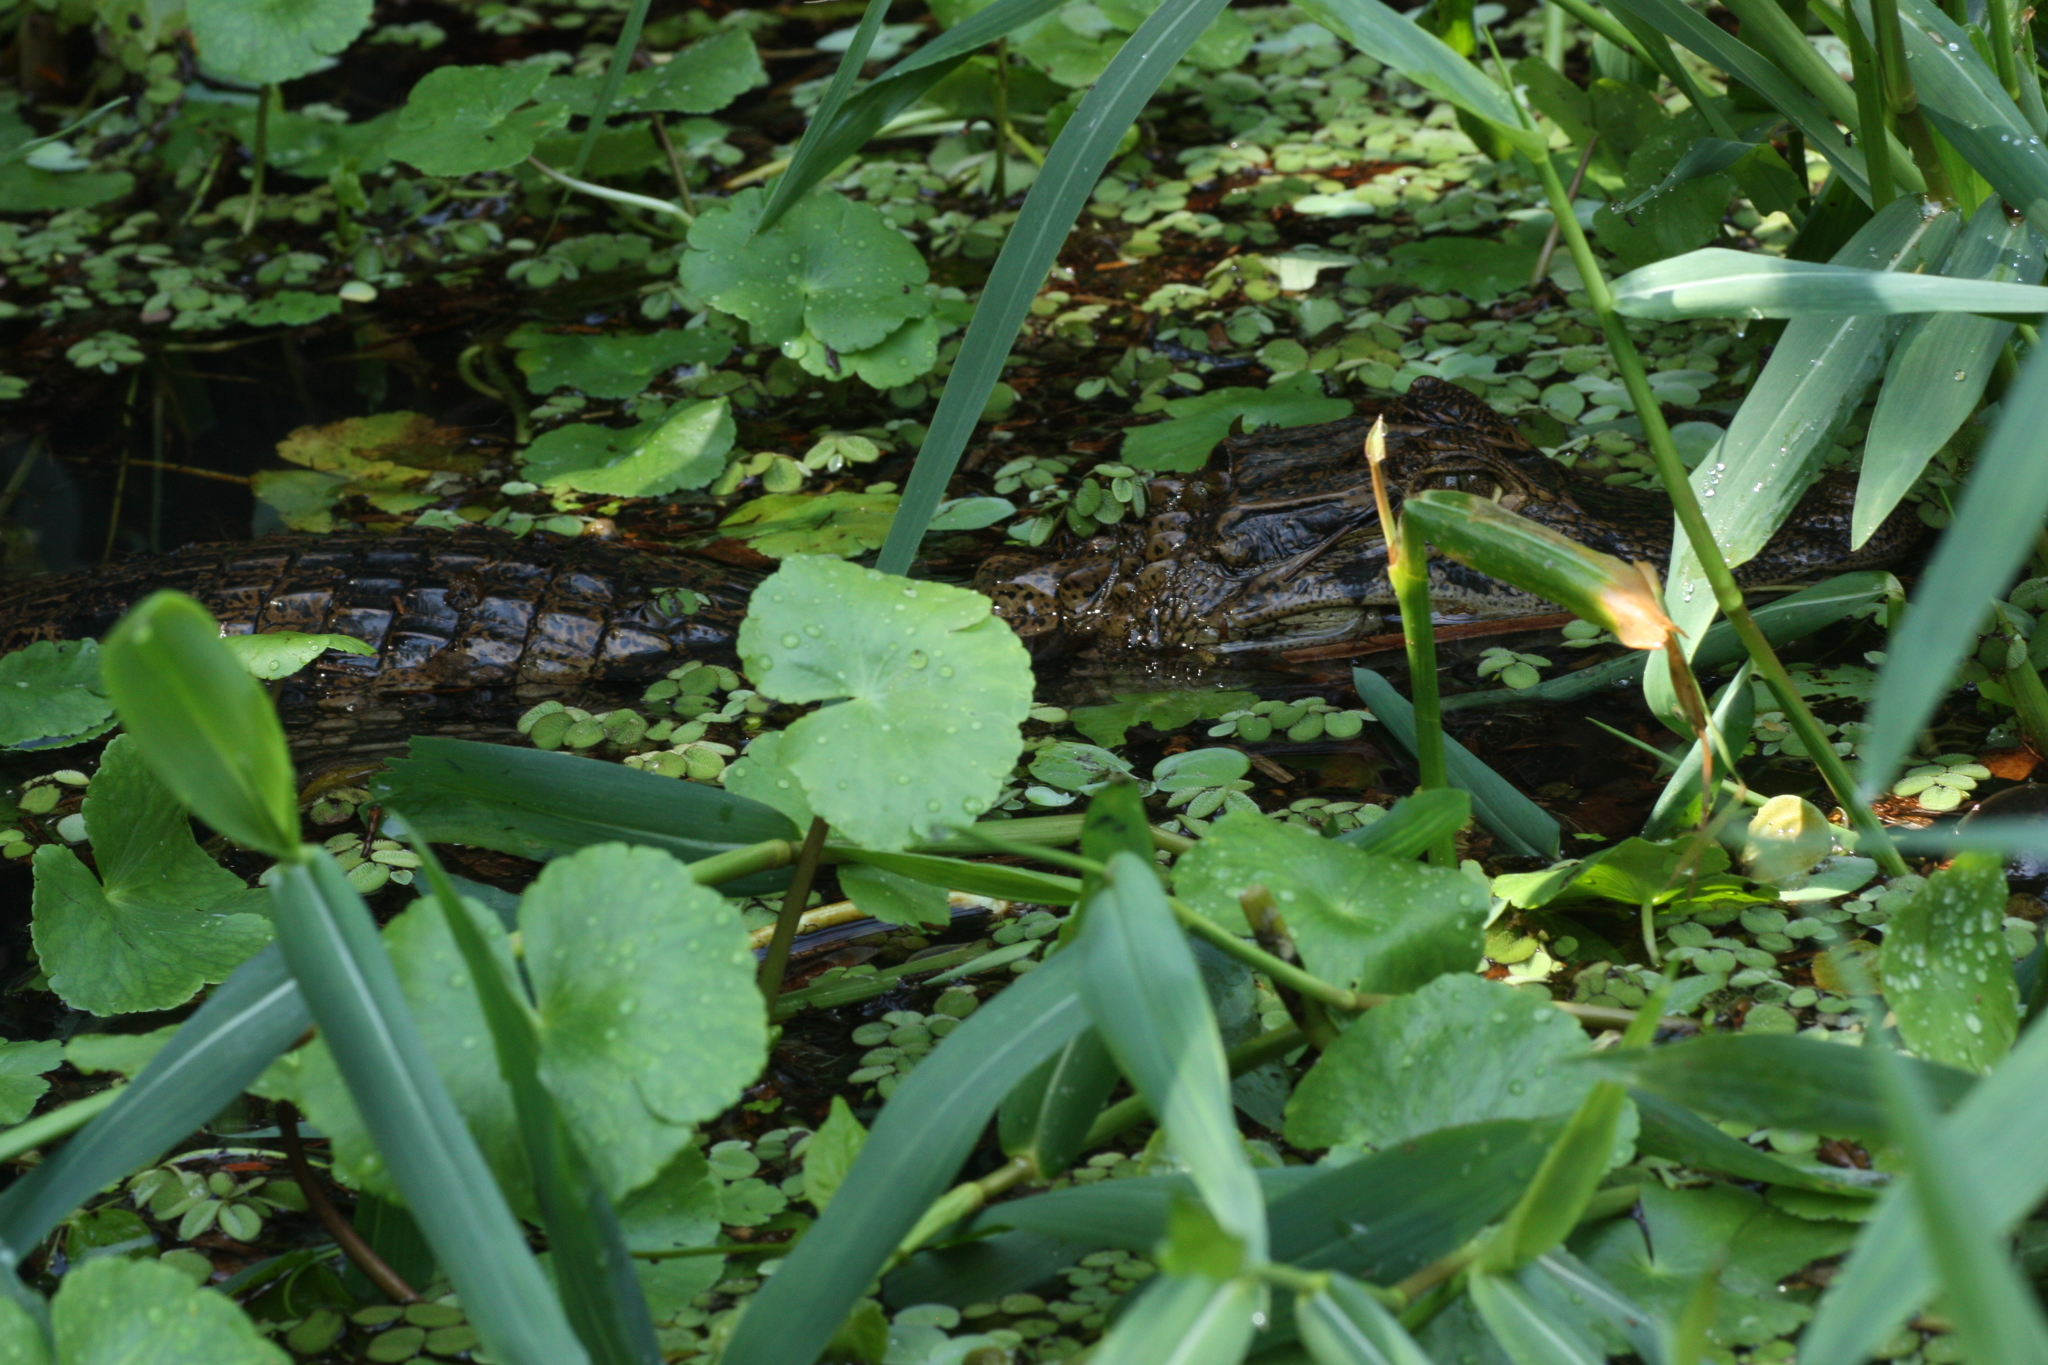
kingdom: Animalia
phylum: Chordata
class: Crocodylia
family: Alligatoridae
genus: Caiman
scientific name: Caiman crocodilus
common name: Common caiman
